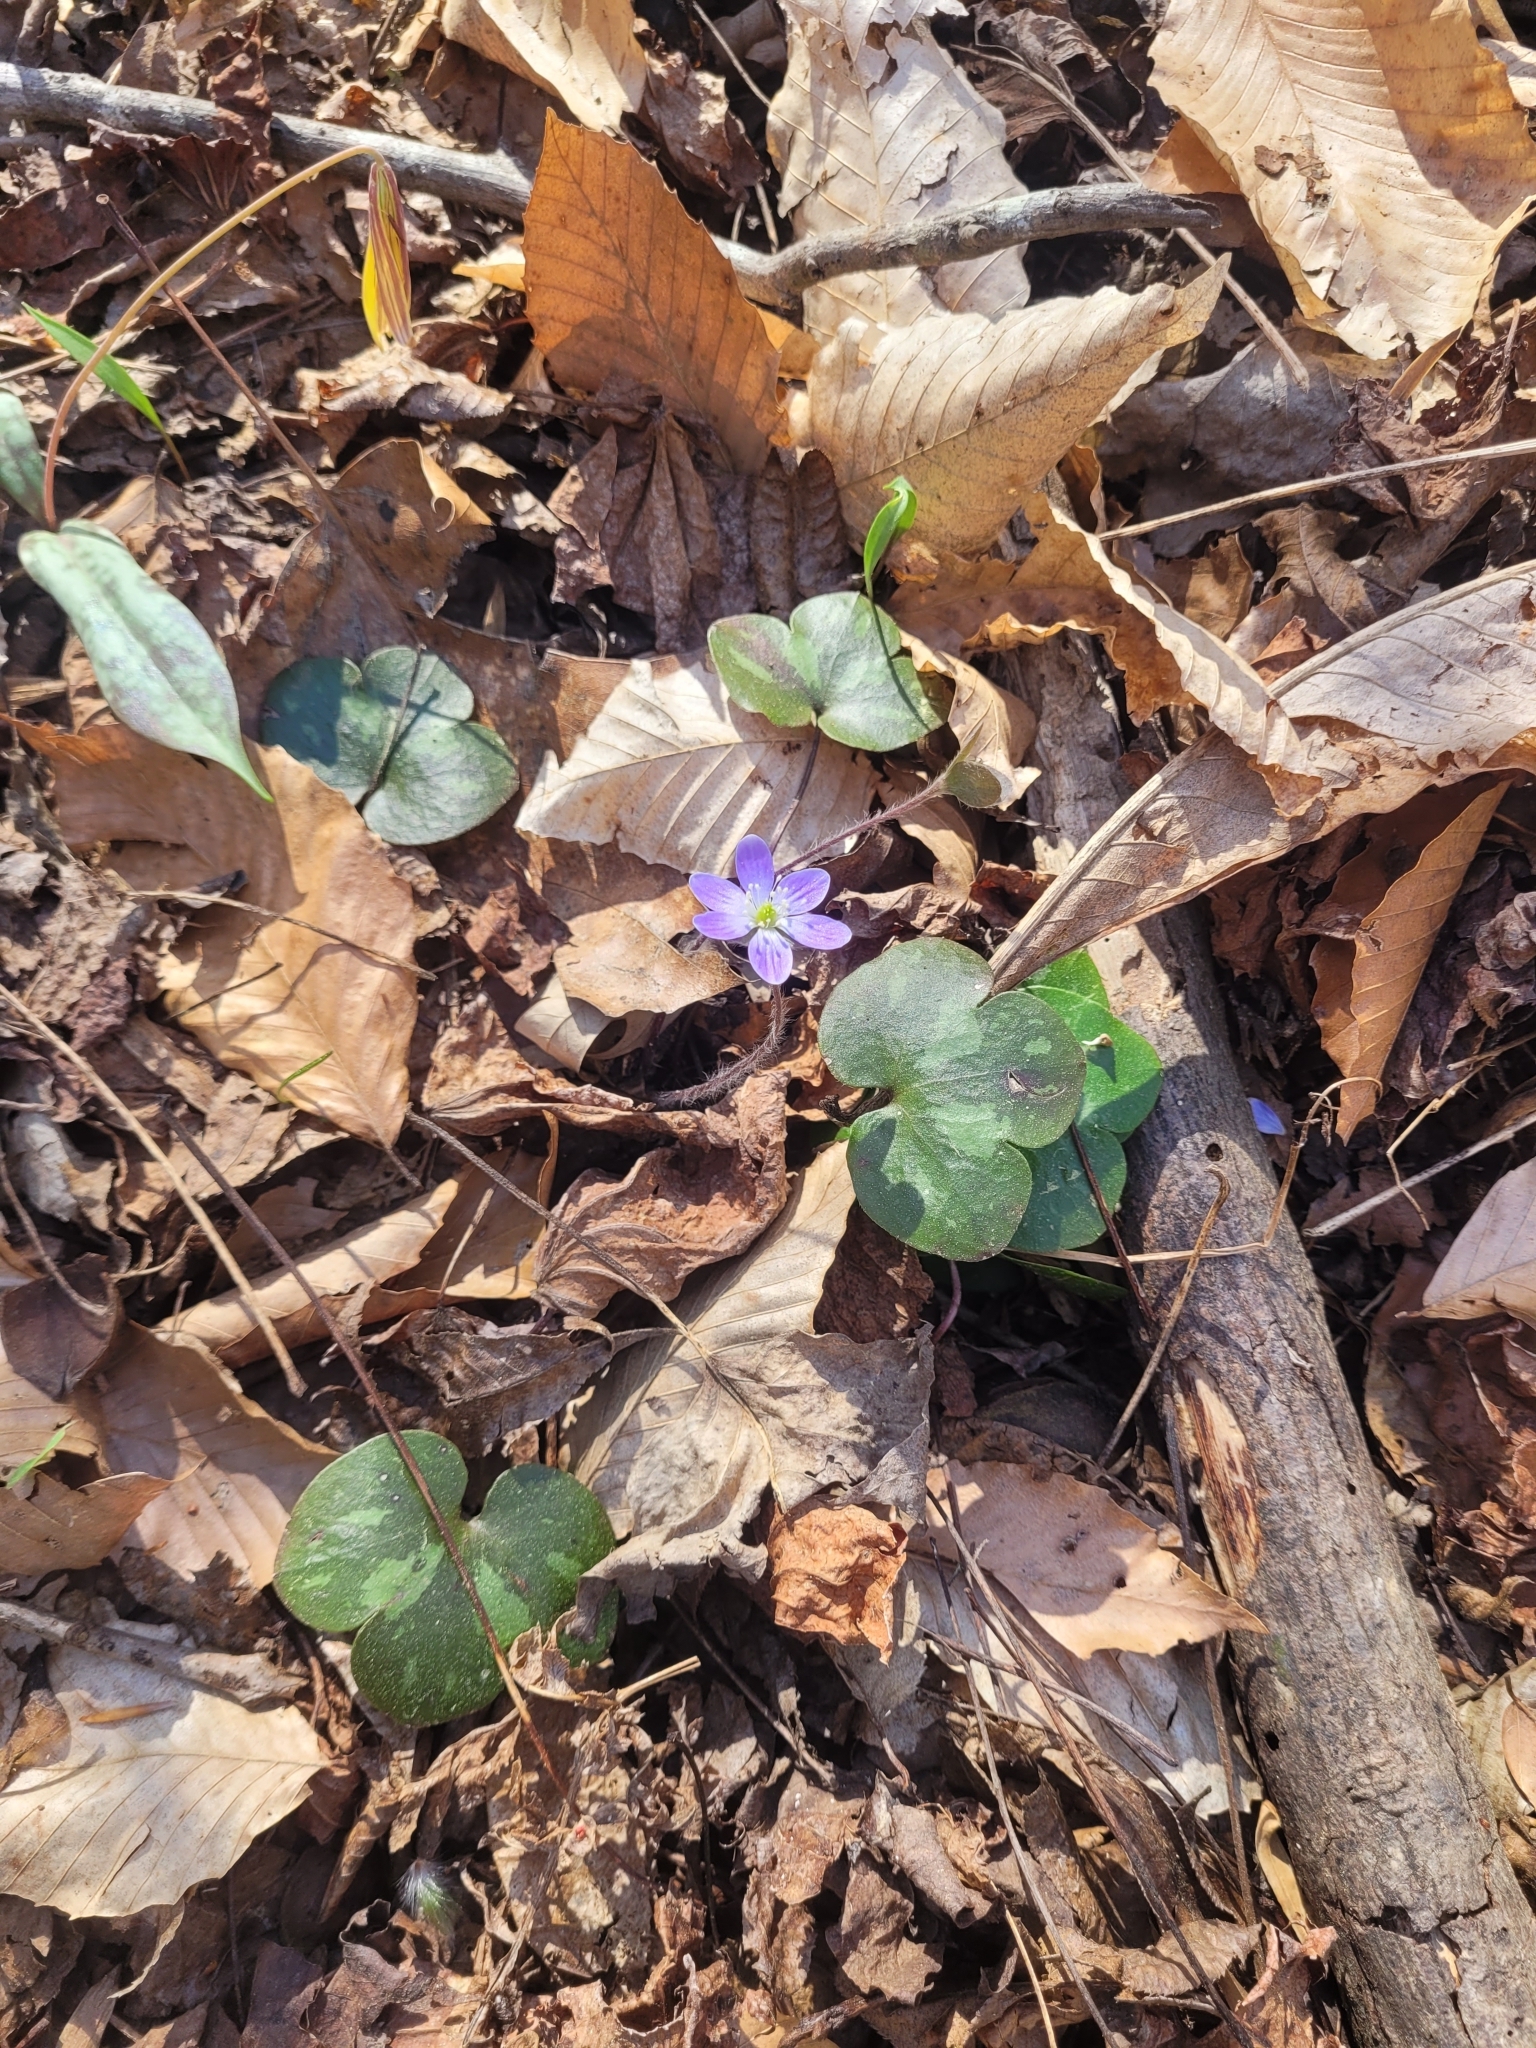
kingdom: Plantae
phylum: Tracheophyta
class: Magnoliopsida
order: Ranunculales
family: Ranunculaceae
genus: Hepatica
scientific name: Hepatica americana
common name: American hepatica
